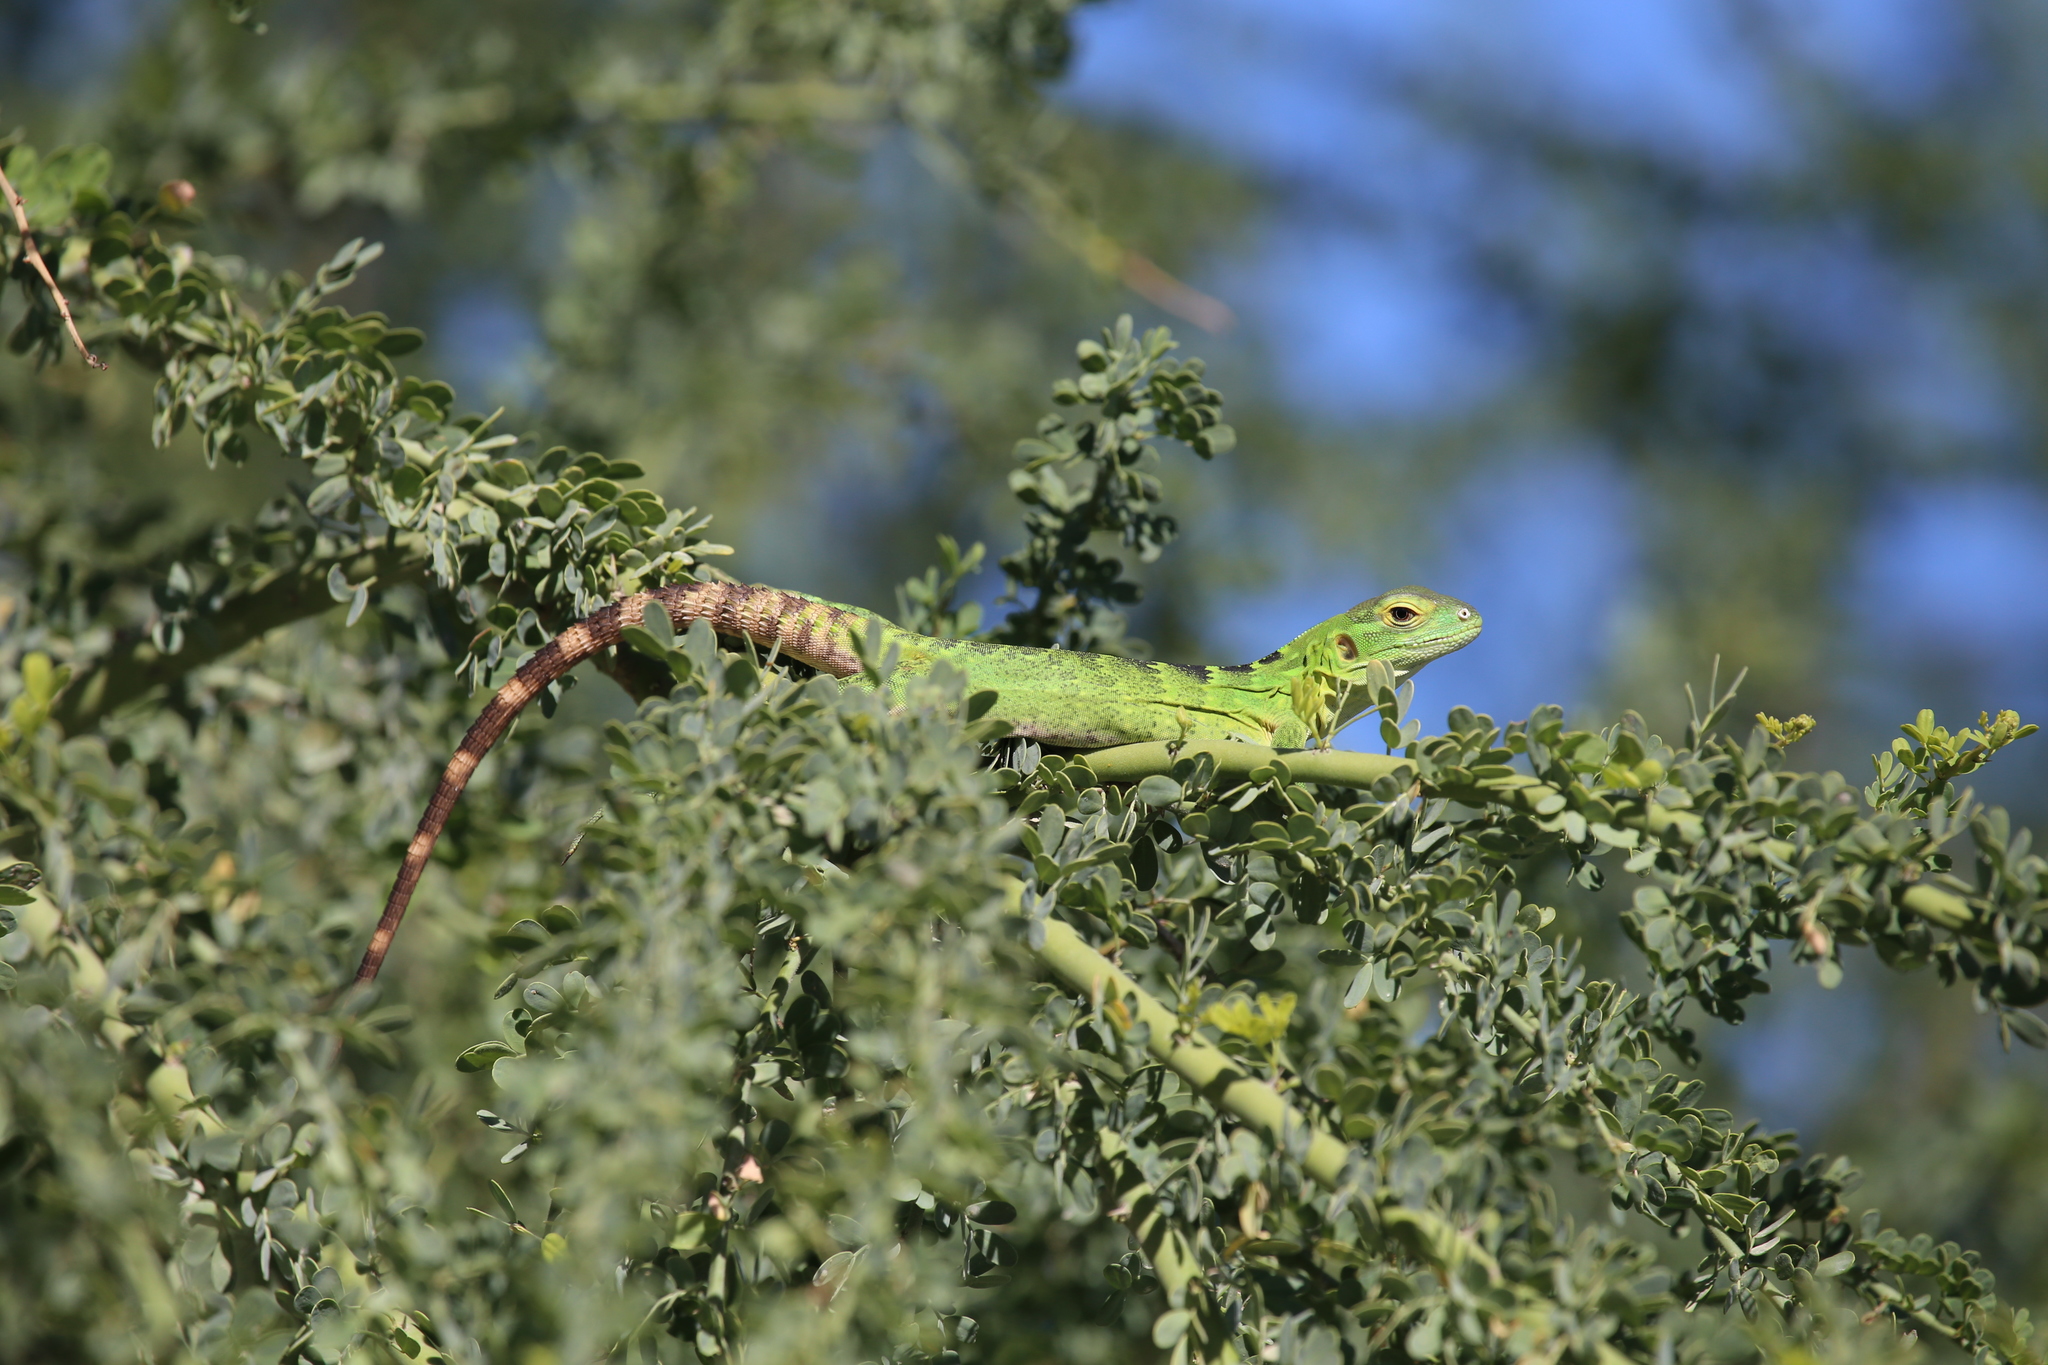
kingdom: Animalia
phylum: Chordata
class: Squamata
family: Iguanidae
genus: Ctenosaura
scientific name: Ctenosaura hemilopha
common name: Baja california spiny- tailed iguana
